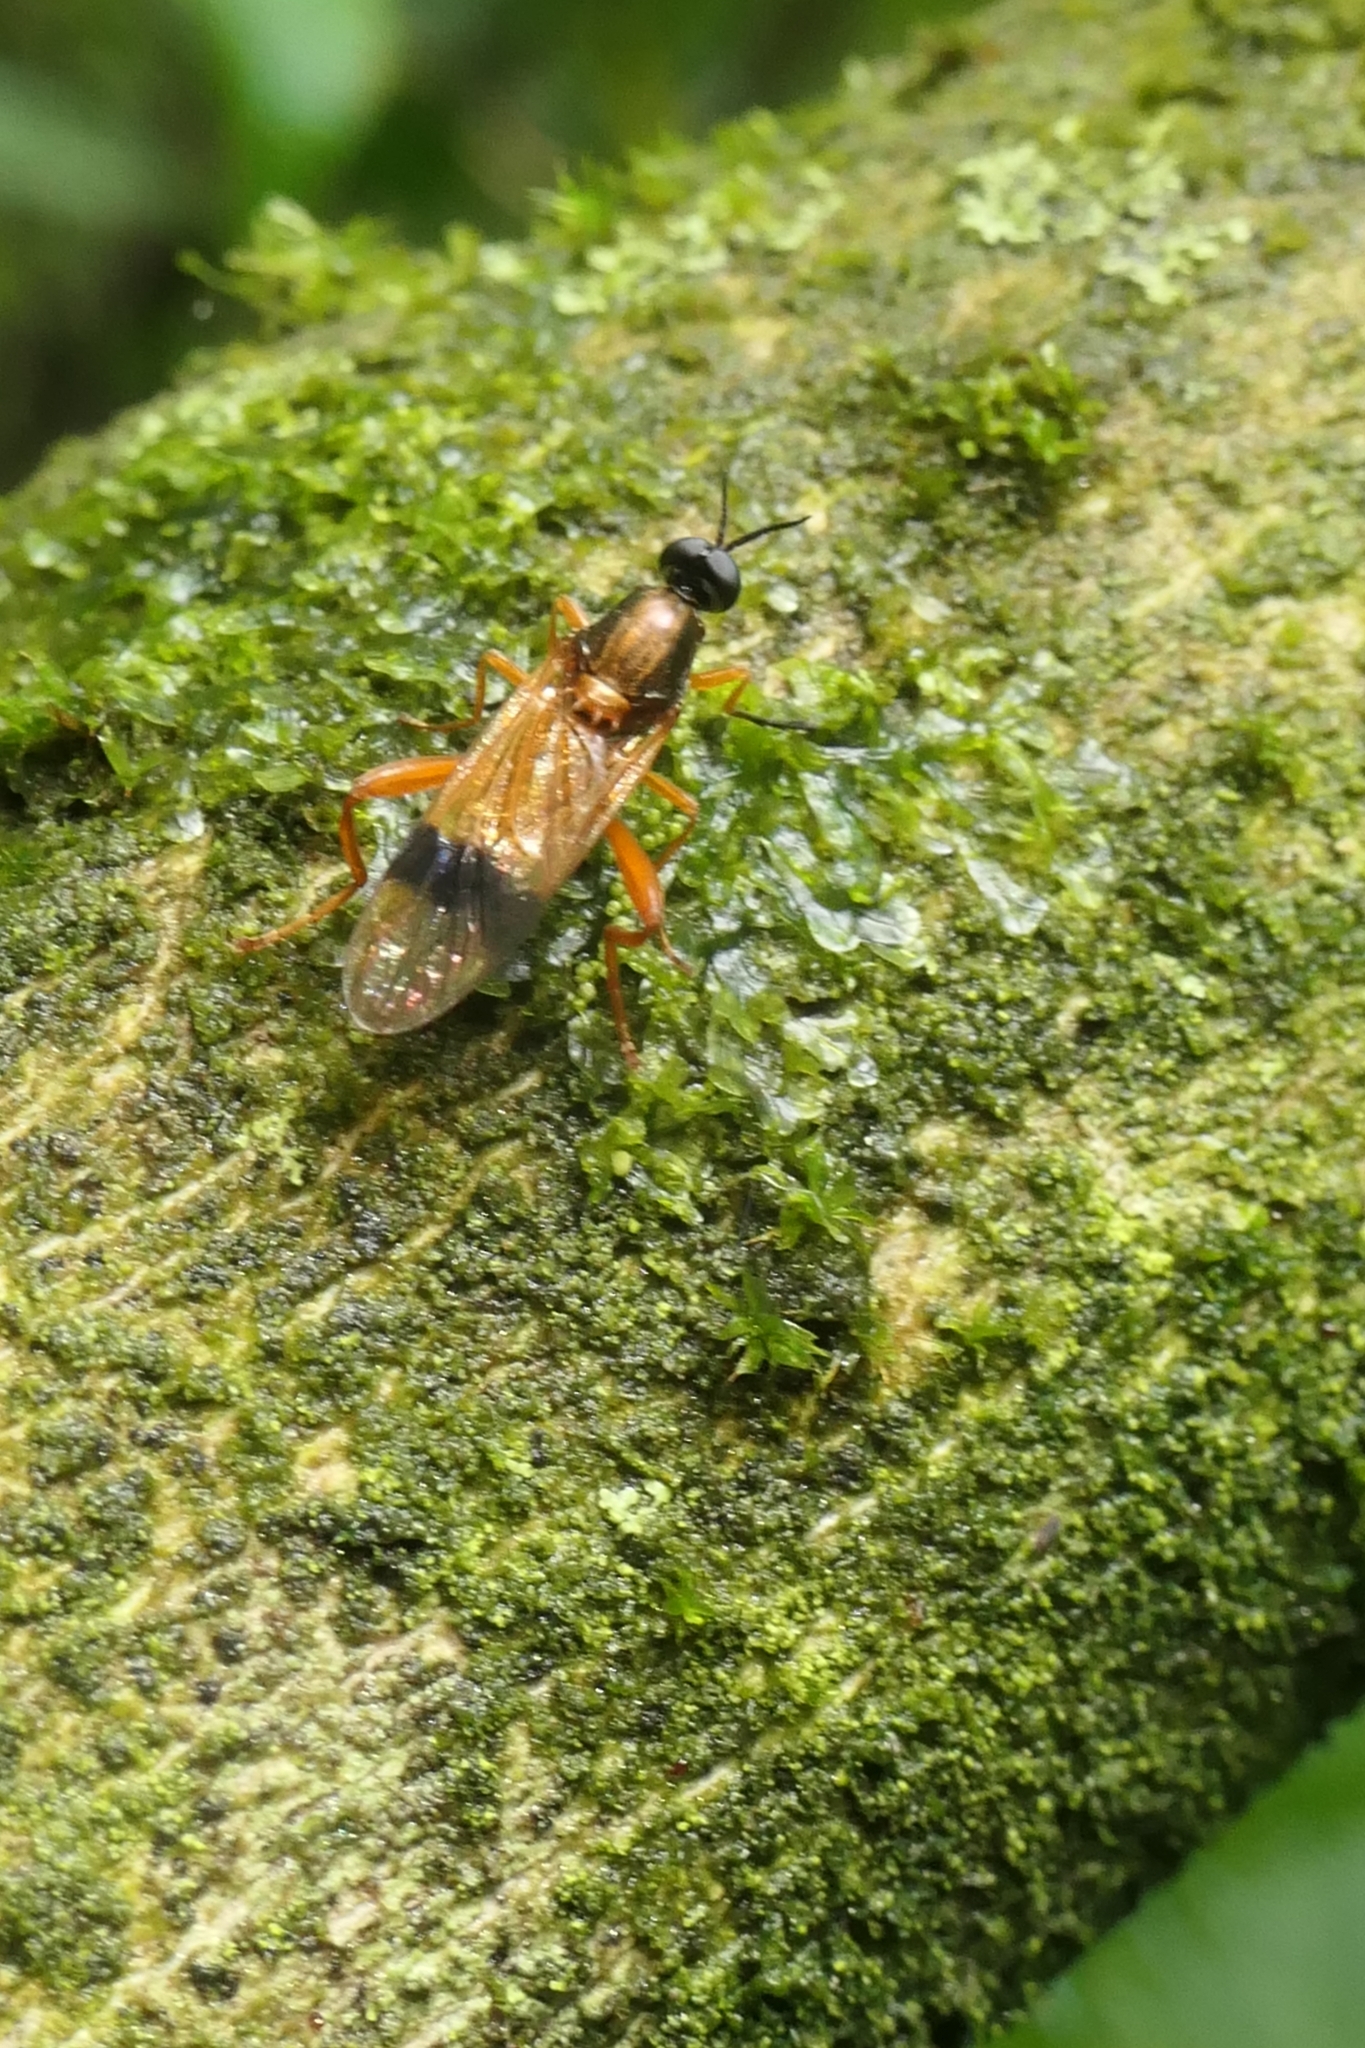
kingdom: Animalia
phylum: Arthropoda
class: Insecta
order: Diptera
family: Stratiomyidae
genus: Benhamyia
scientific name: Benhamyia apicalis
